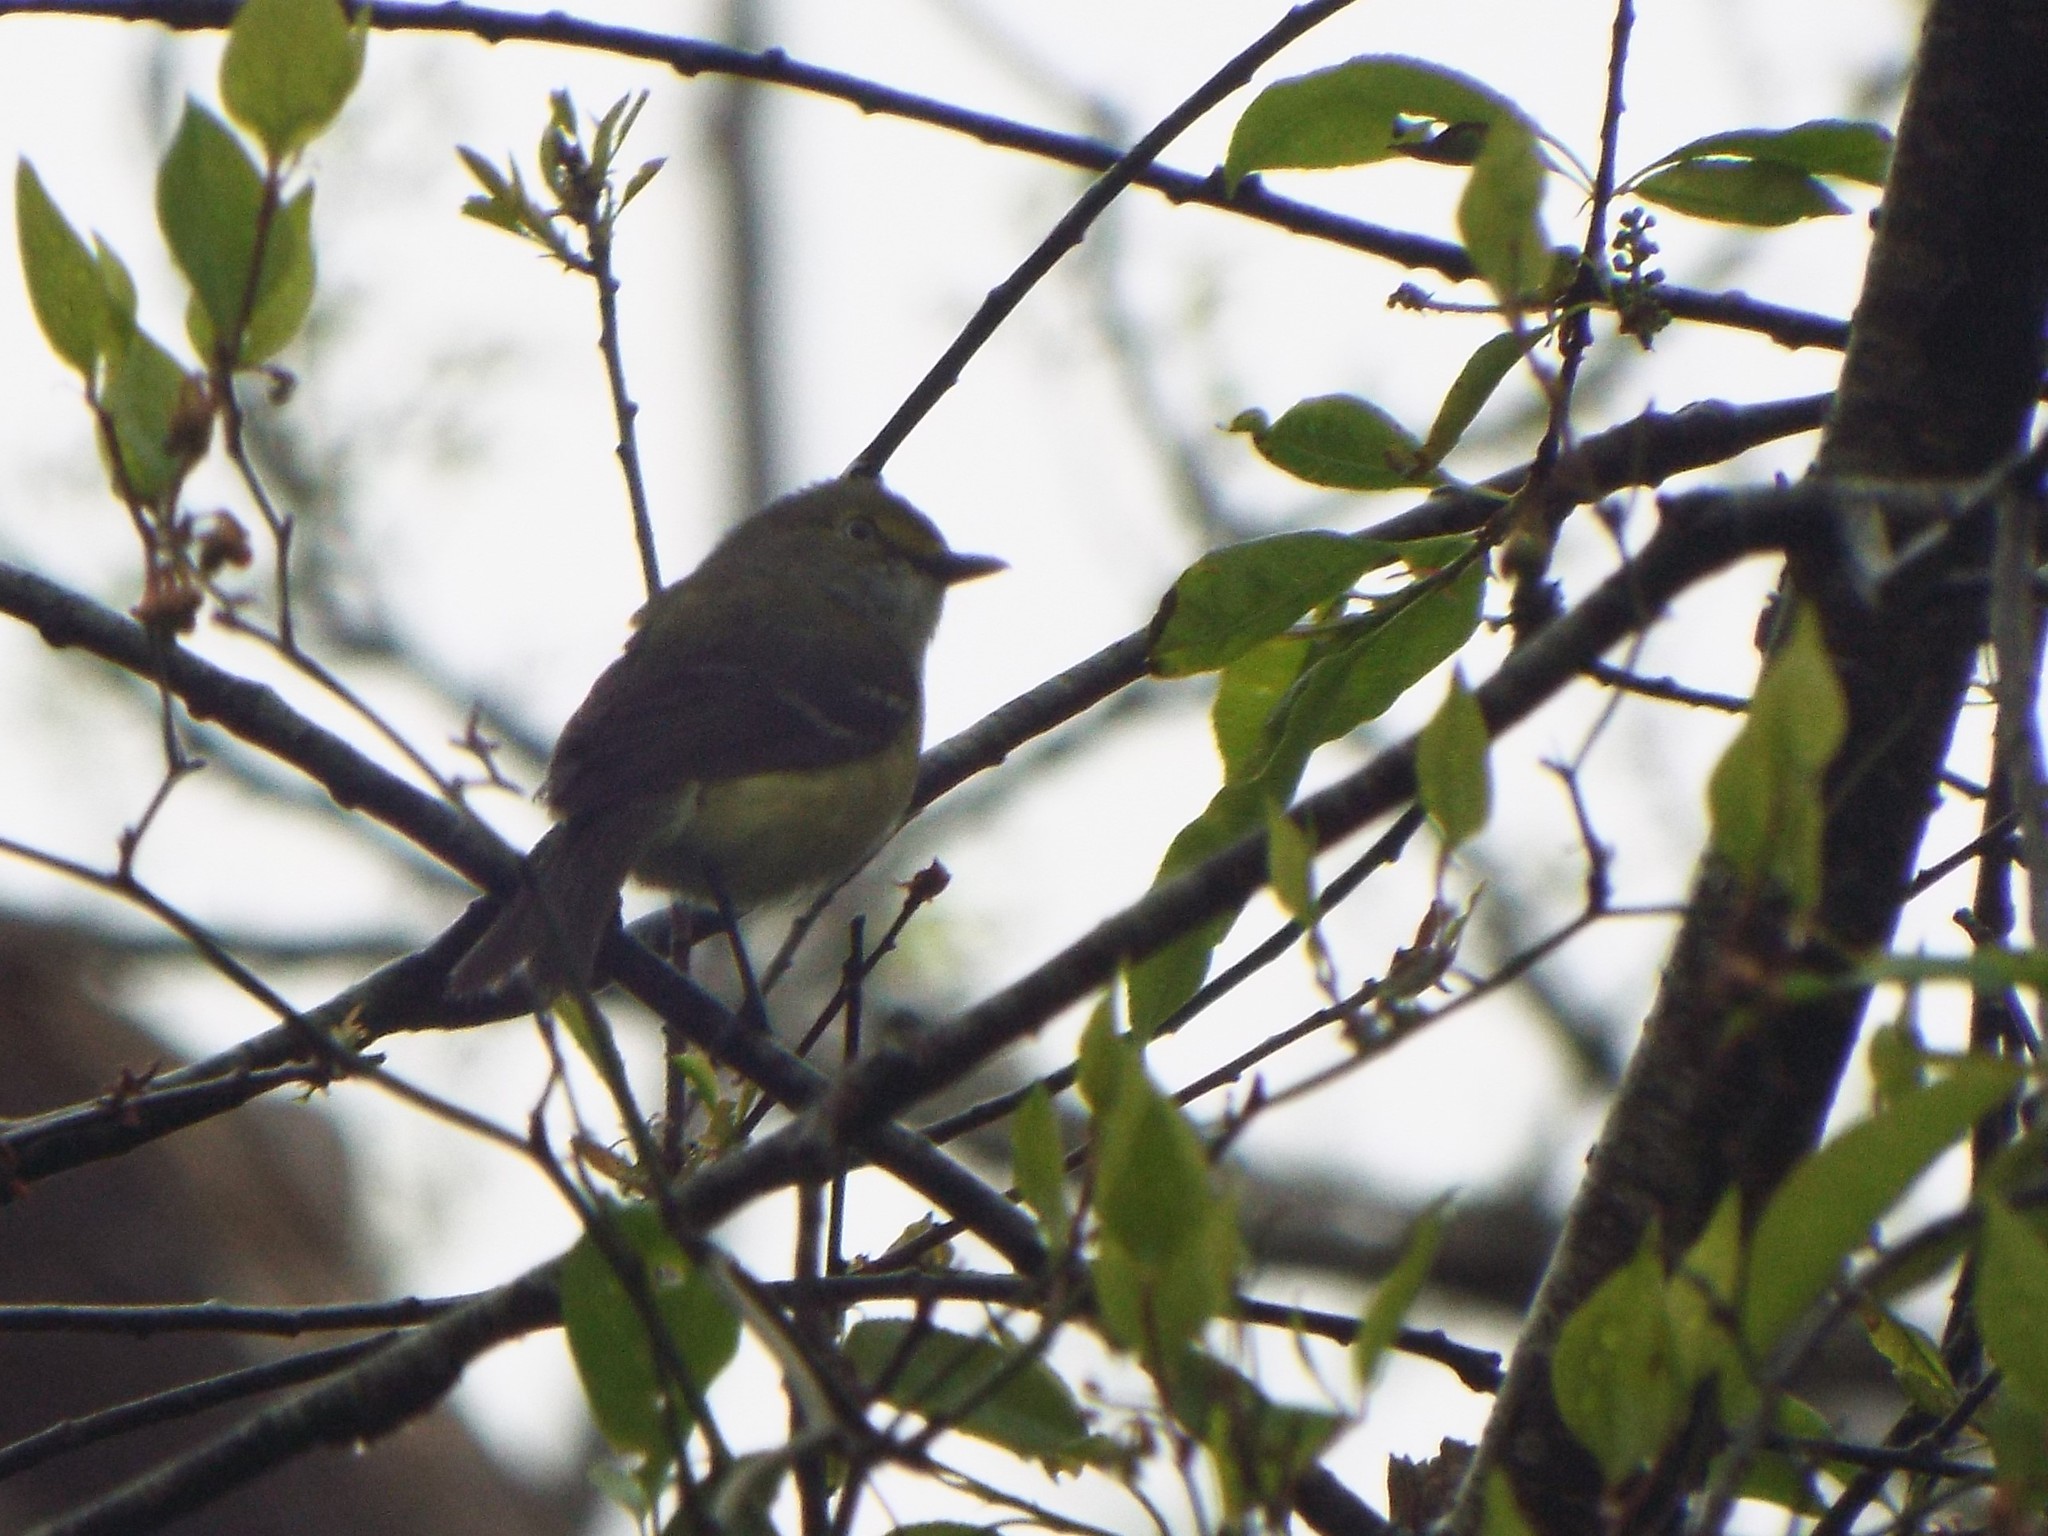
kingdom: Animalia
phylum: Chordata
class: Aves
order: Passeriformes
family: Vireonidae
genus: Vireo
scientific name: Vireo griseus
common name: White-eyed vireo
